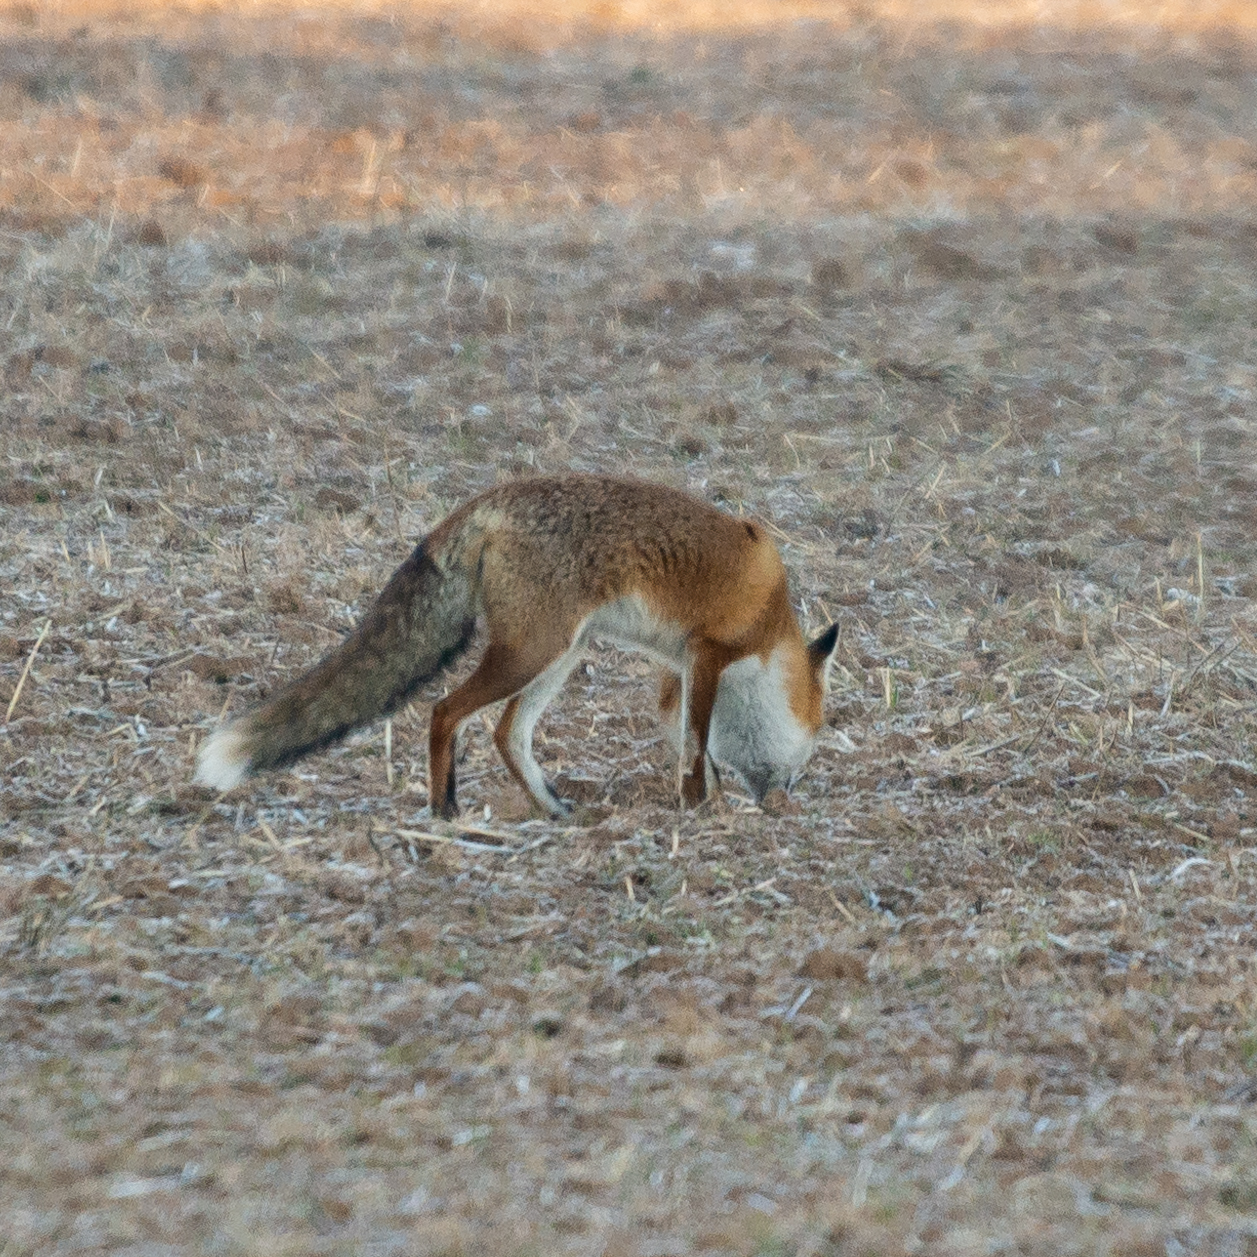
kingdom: Animalia
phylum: Chordata
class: Mammalia
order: Carnivora
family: Canidae
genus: Vulpes
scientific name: Vulpes vulpes
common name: Red fox
